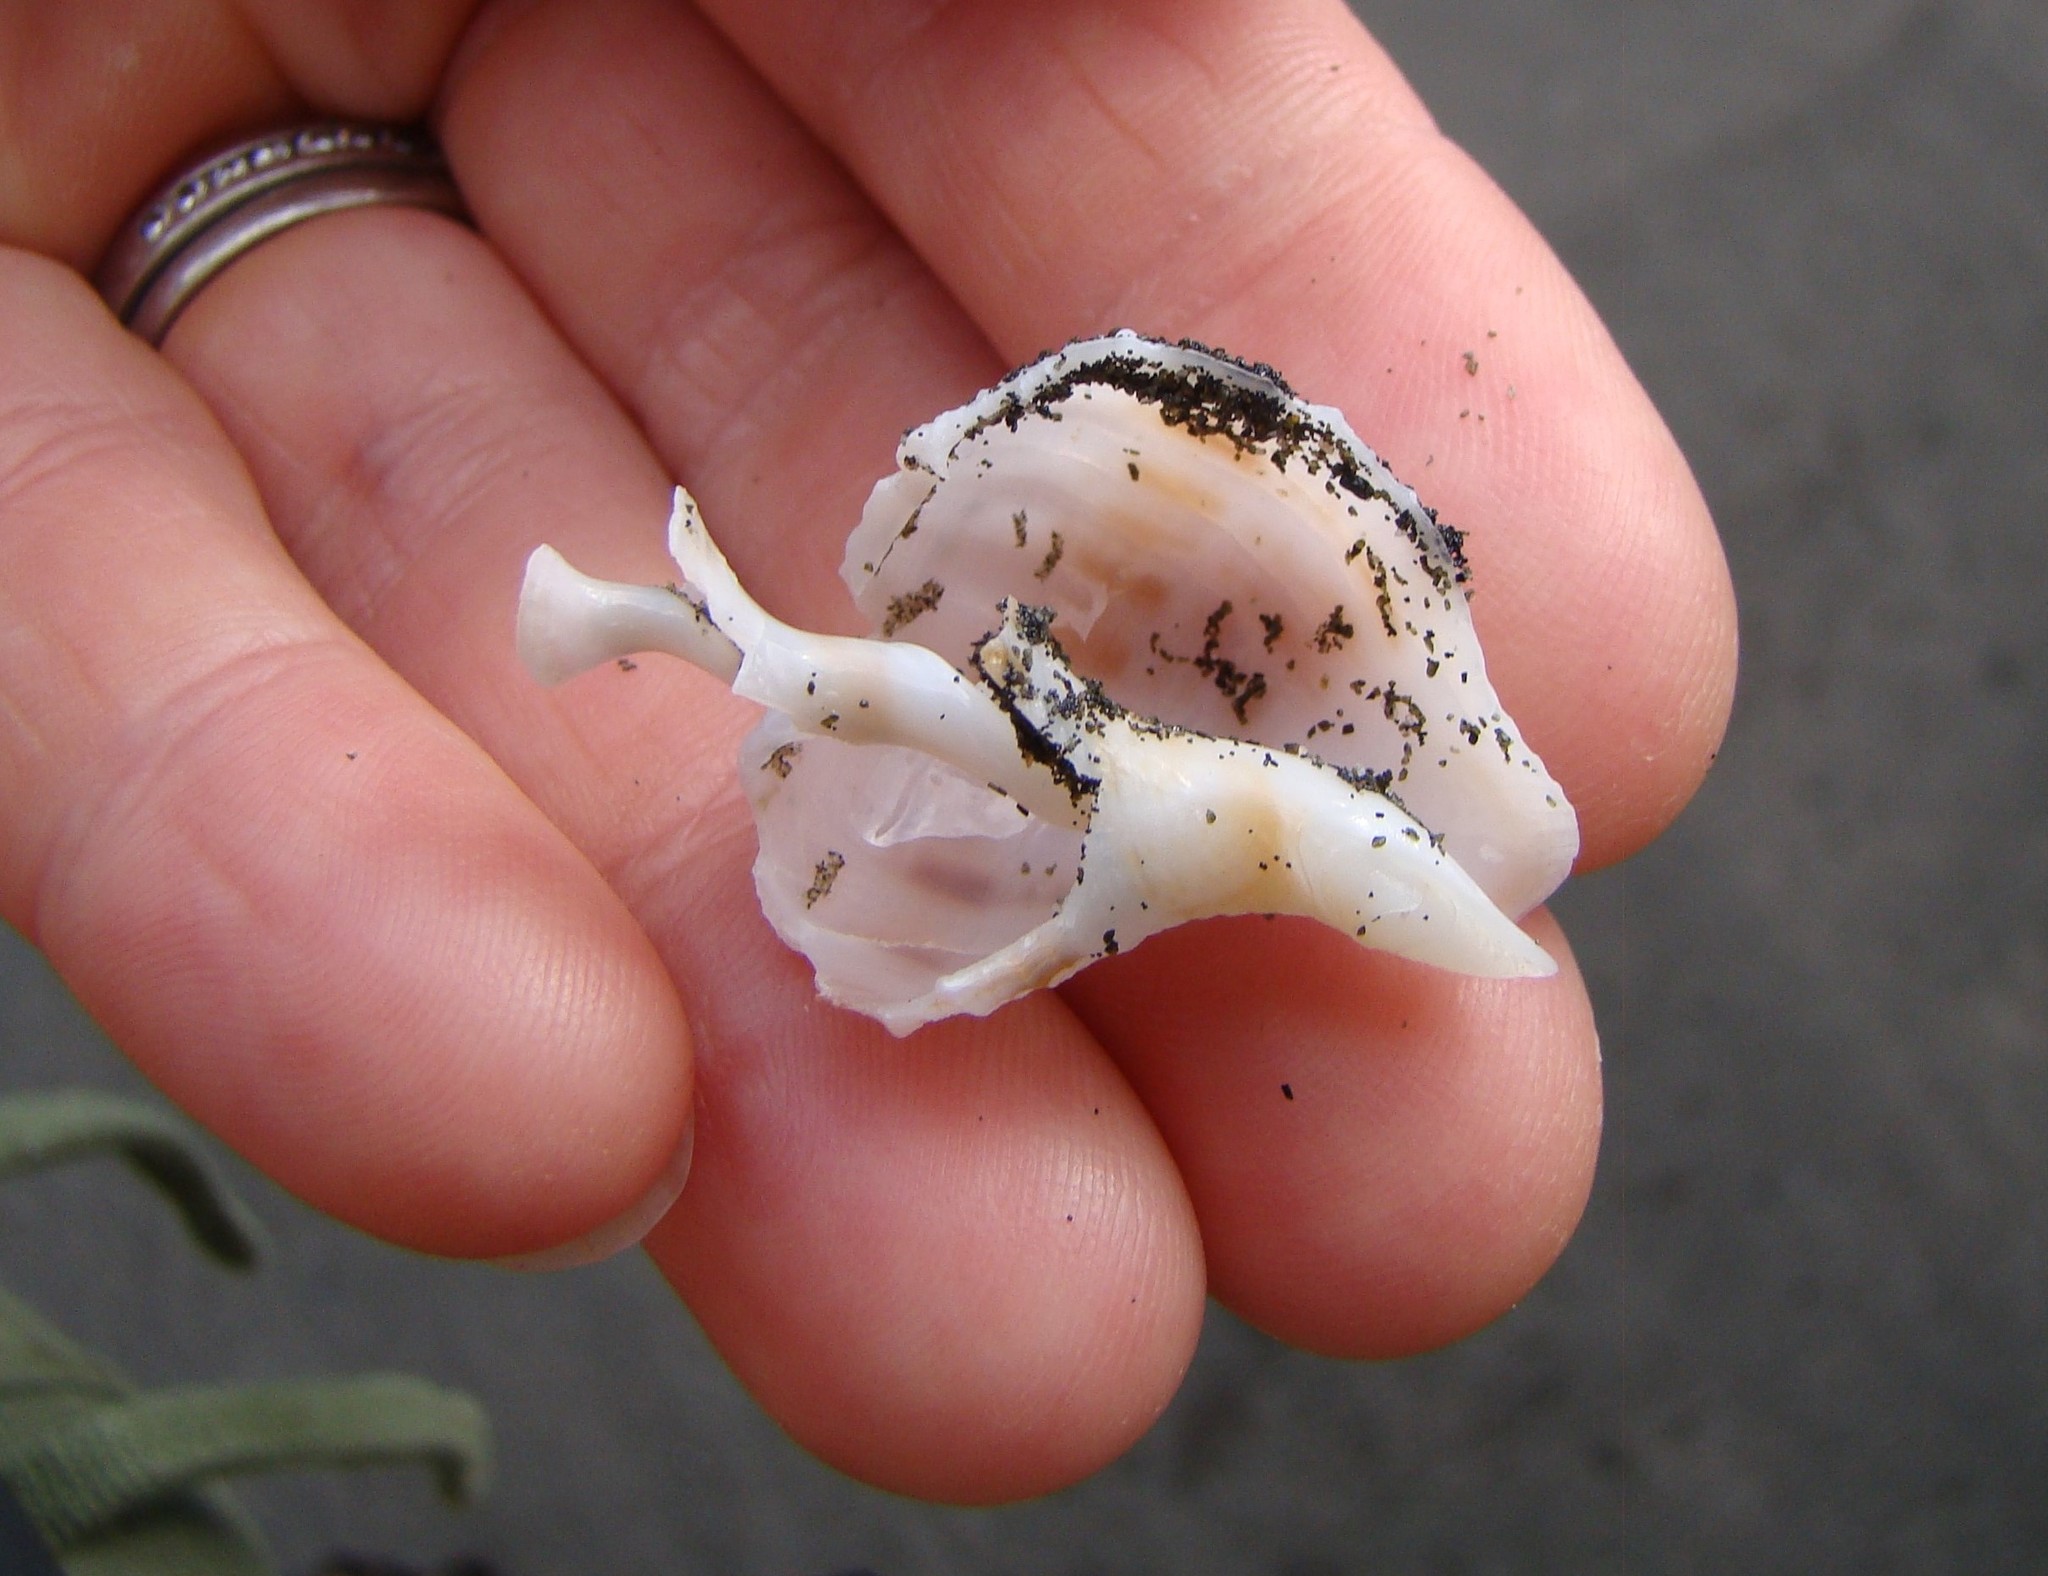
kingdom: Animalia
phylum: Mollusca
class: Gastropoda
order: Neogastropoda
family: Prosiphonidae
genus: Austrofusus
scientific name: Austrofusus glans
